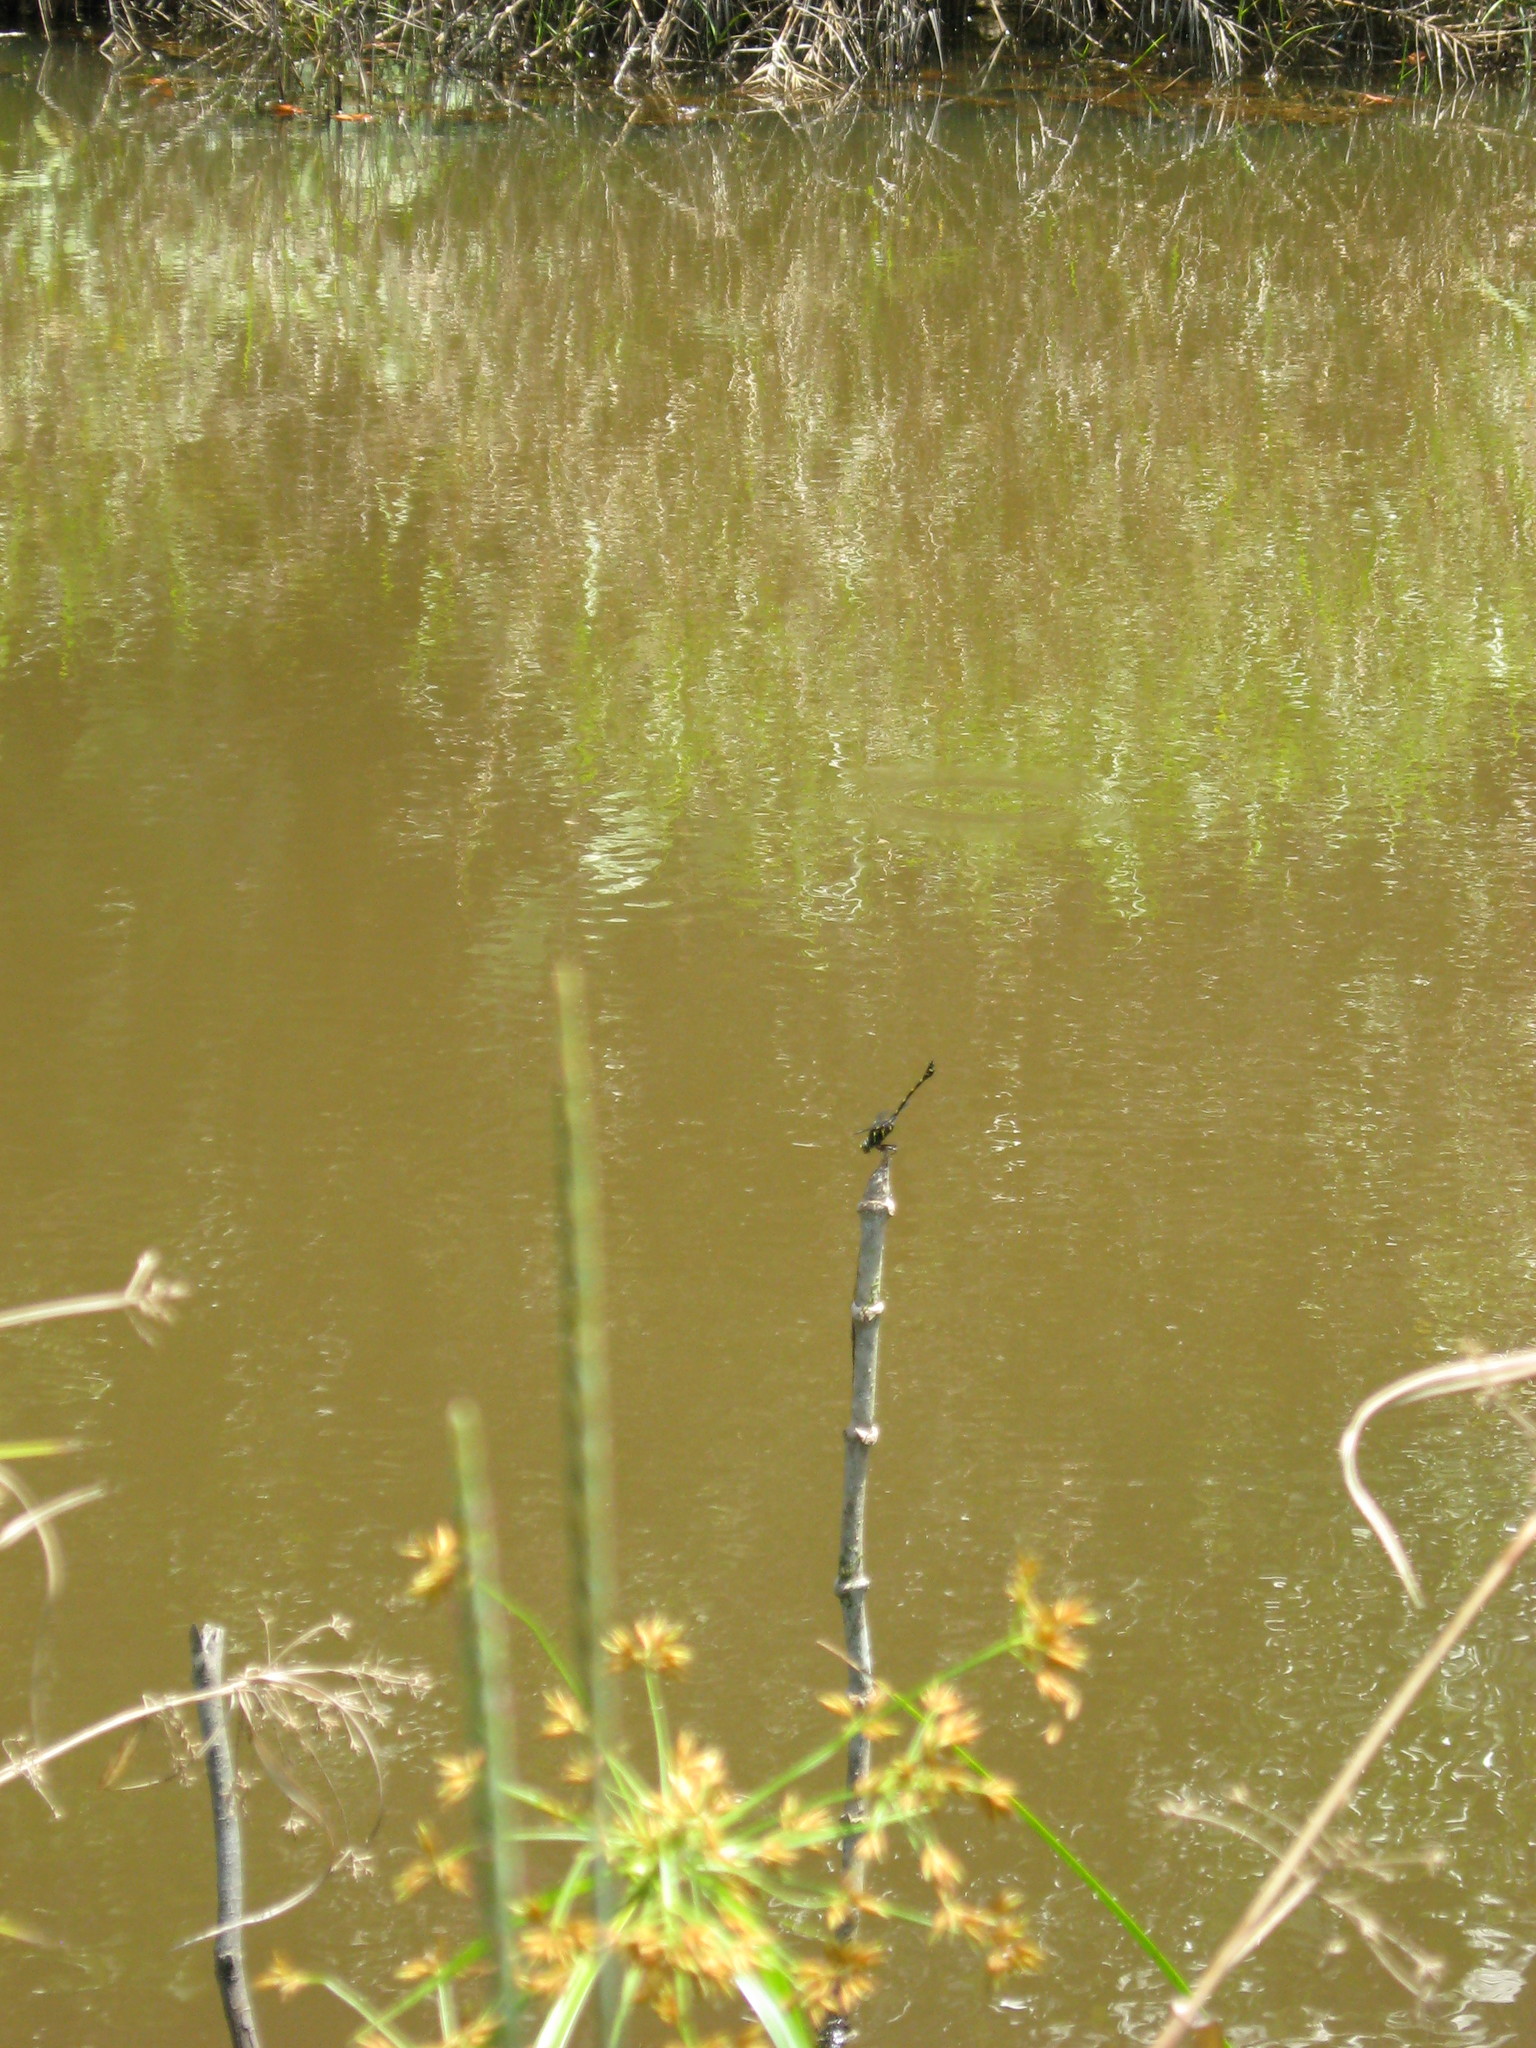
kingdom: Animalia
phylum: Arthropoda
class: Insecta
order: Odonata
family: Gomphidae
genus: Ictinogomphus
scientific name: Ictinogomphus decoratus
